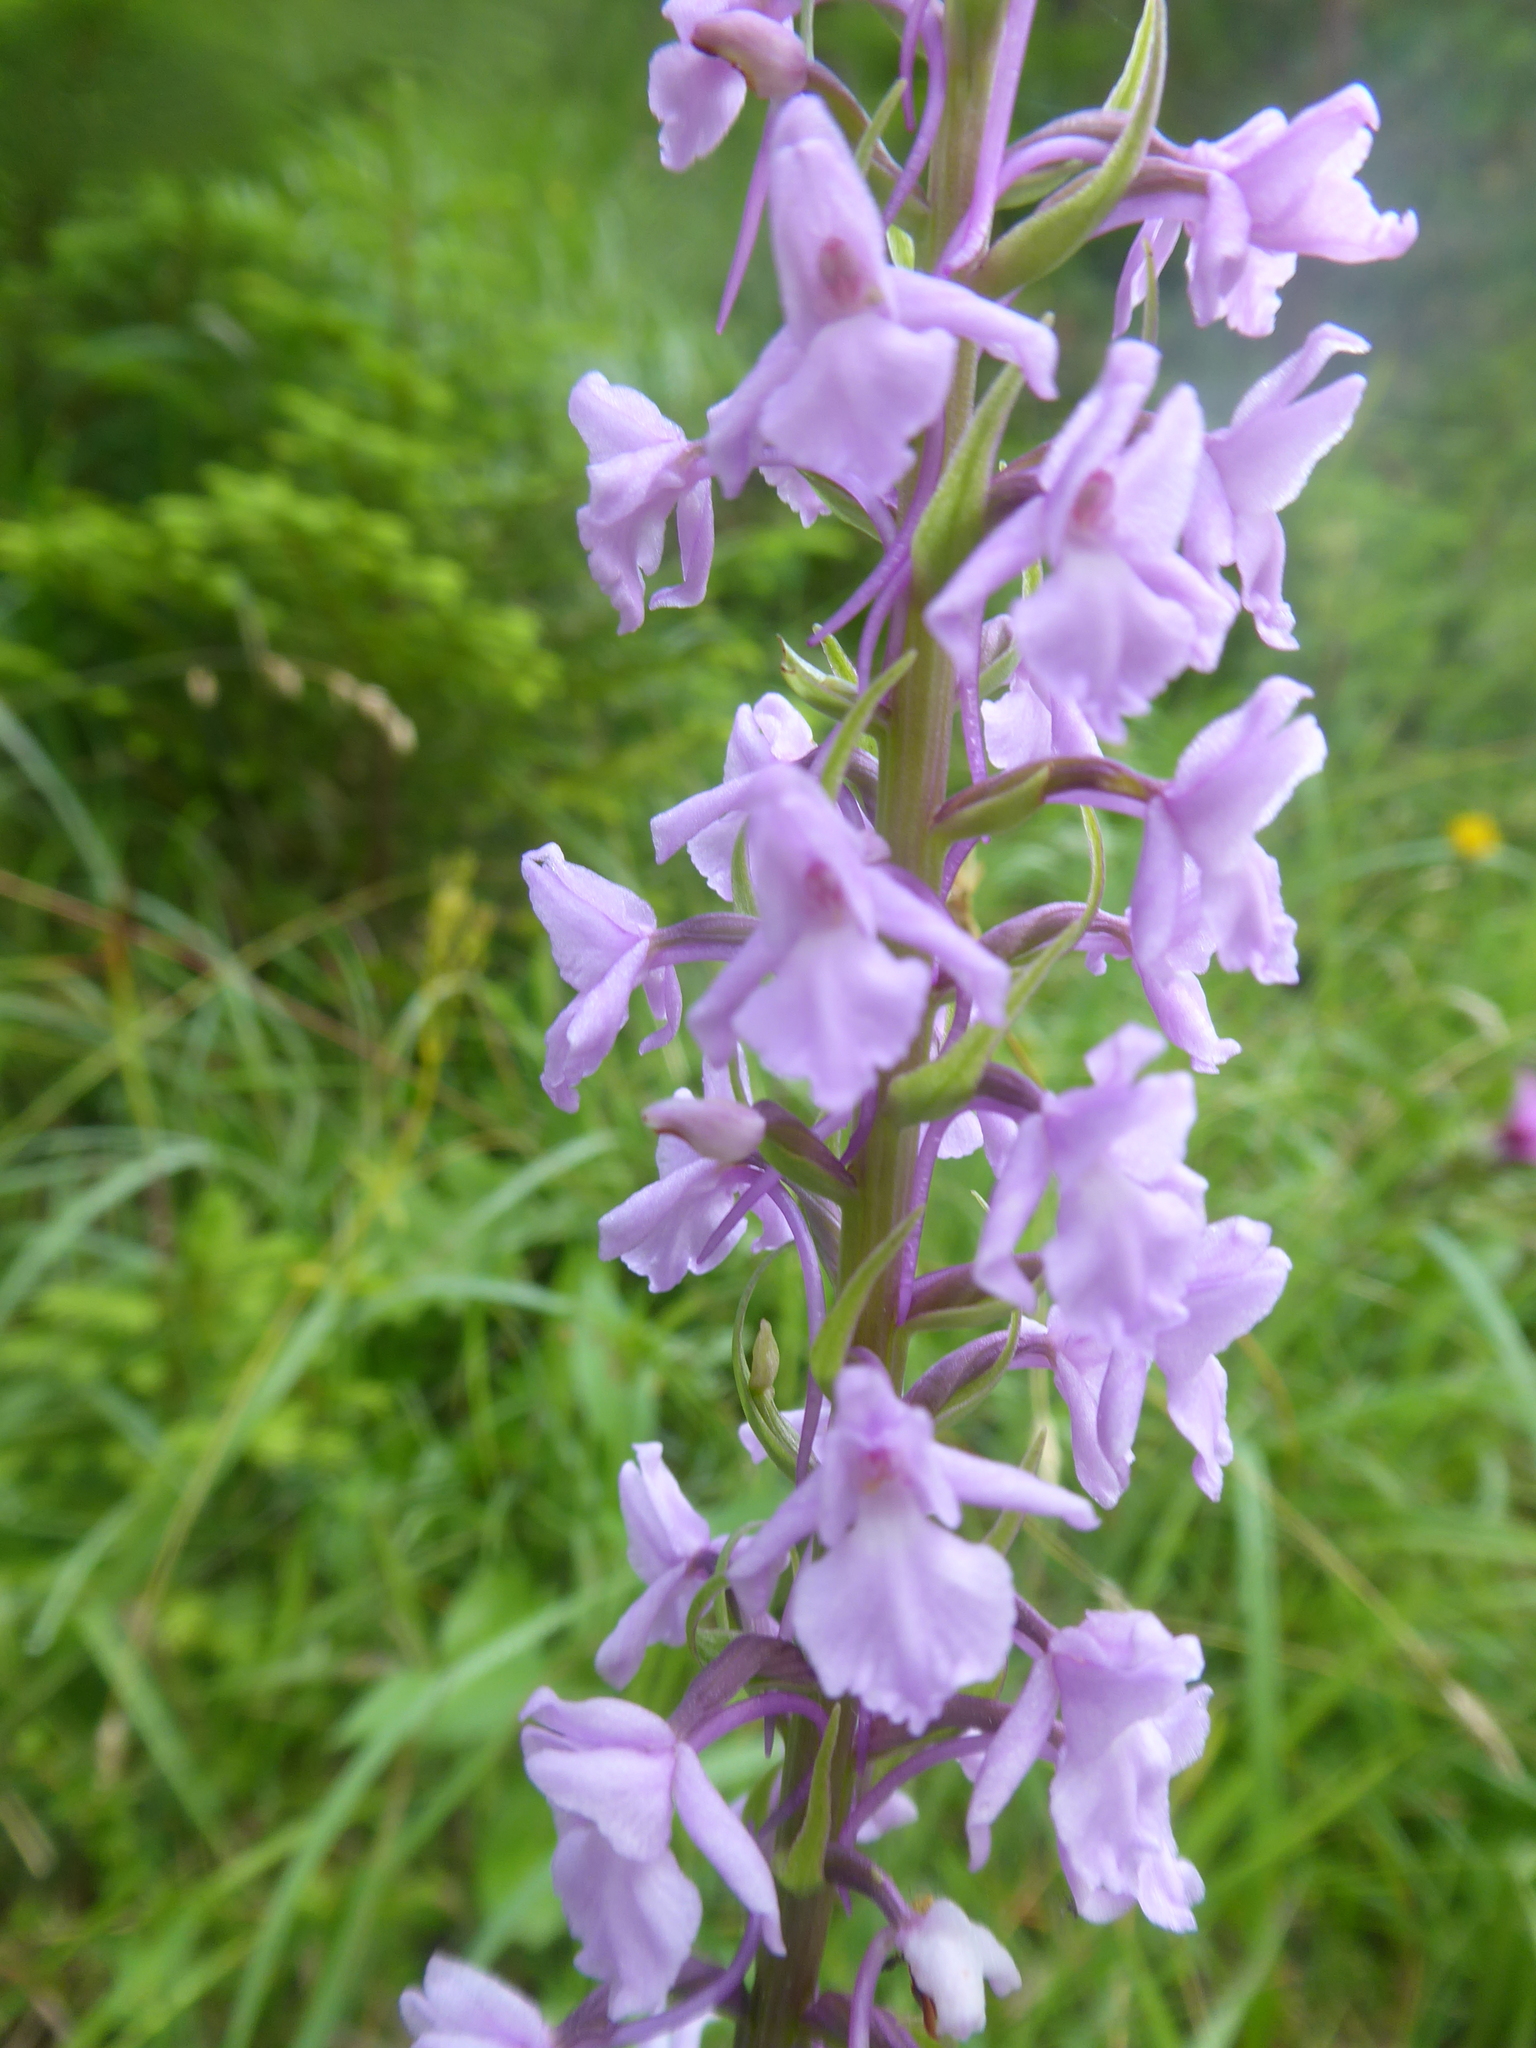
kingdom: Plantae
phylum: Tracheophyta
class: Liliopsida
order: Asparagales
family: Orchidaceae
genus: Gymnadenia
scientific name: Gymnadenia conopsea
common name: Fragrant orchid
